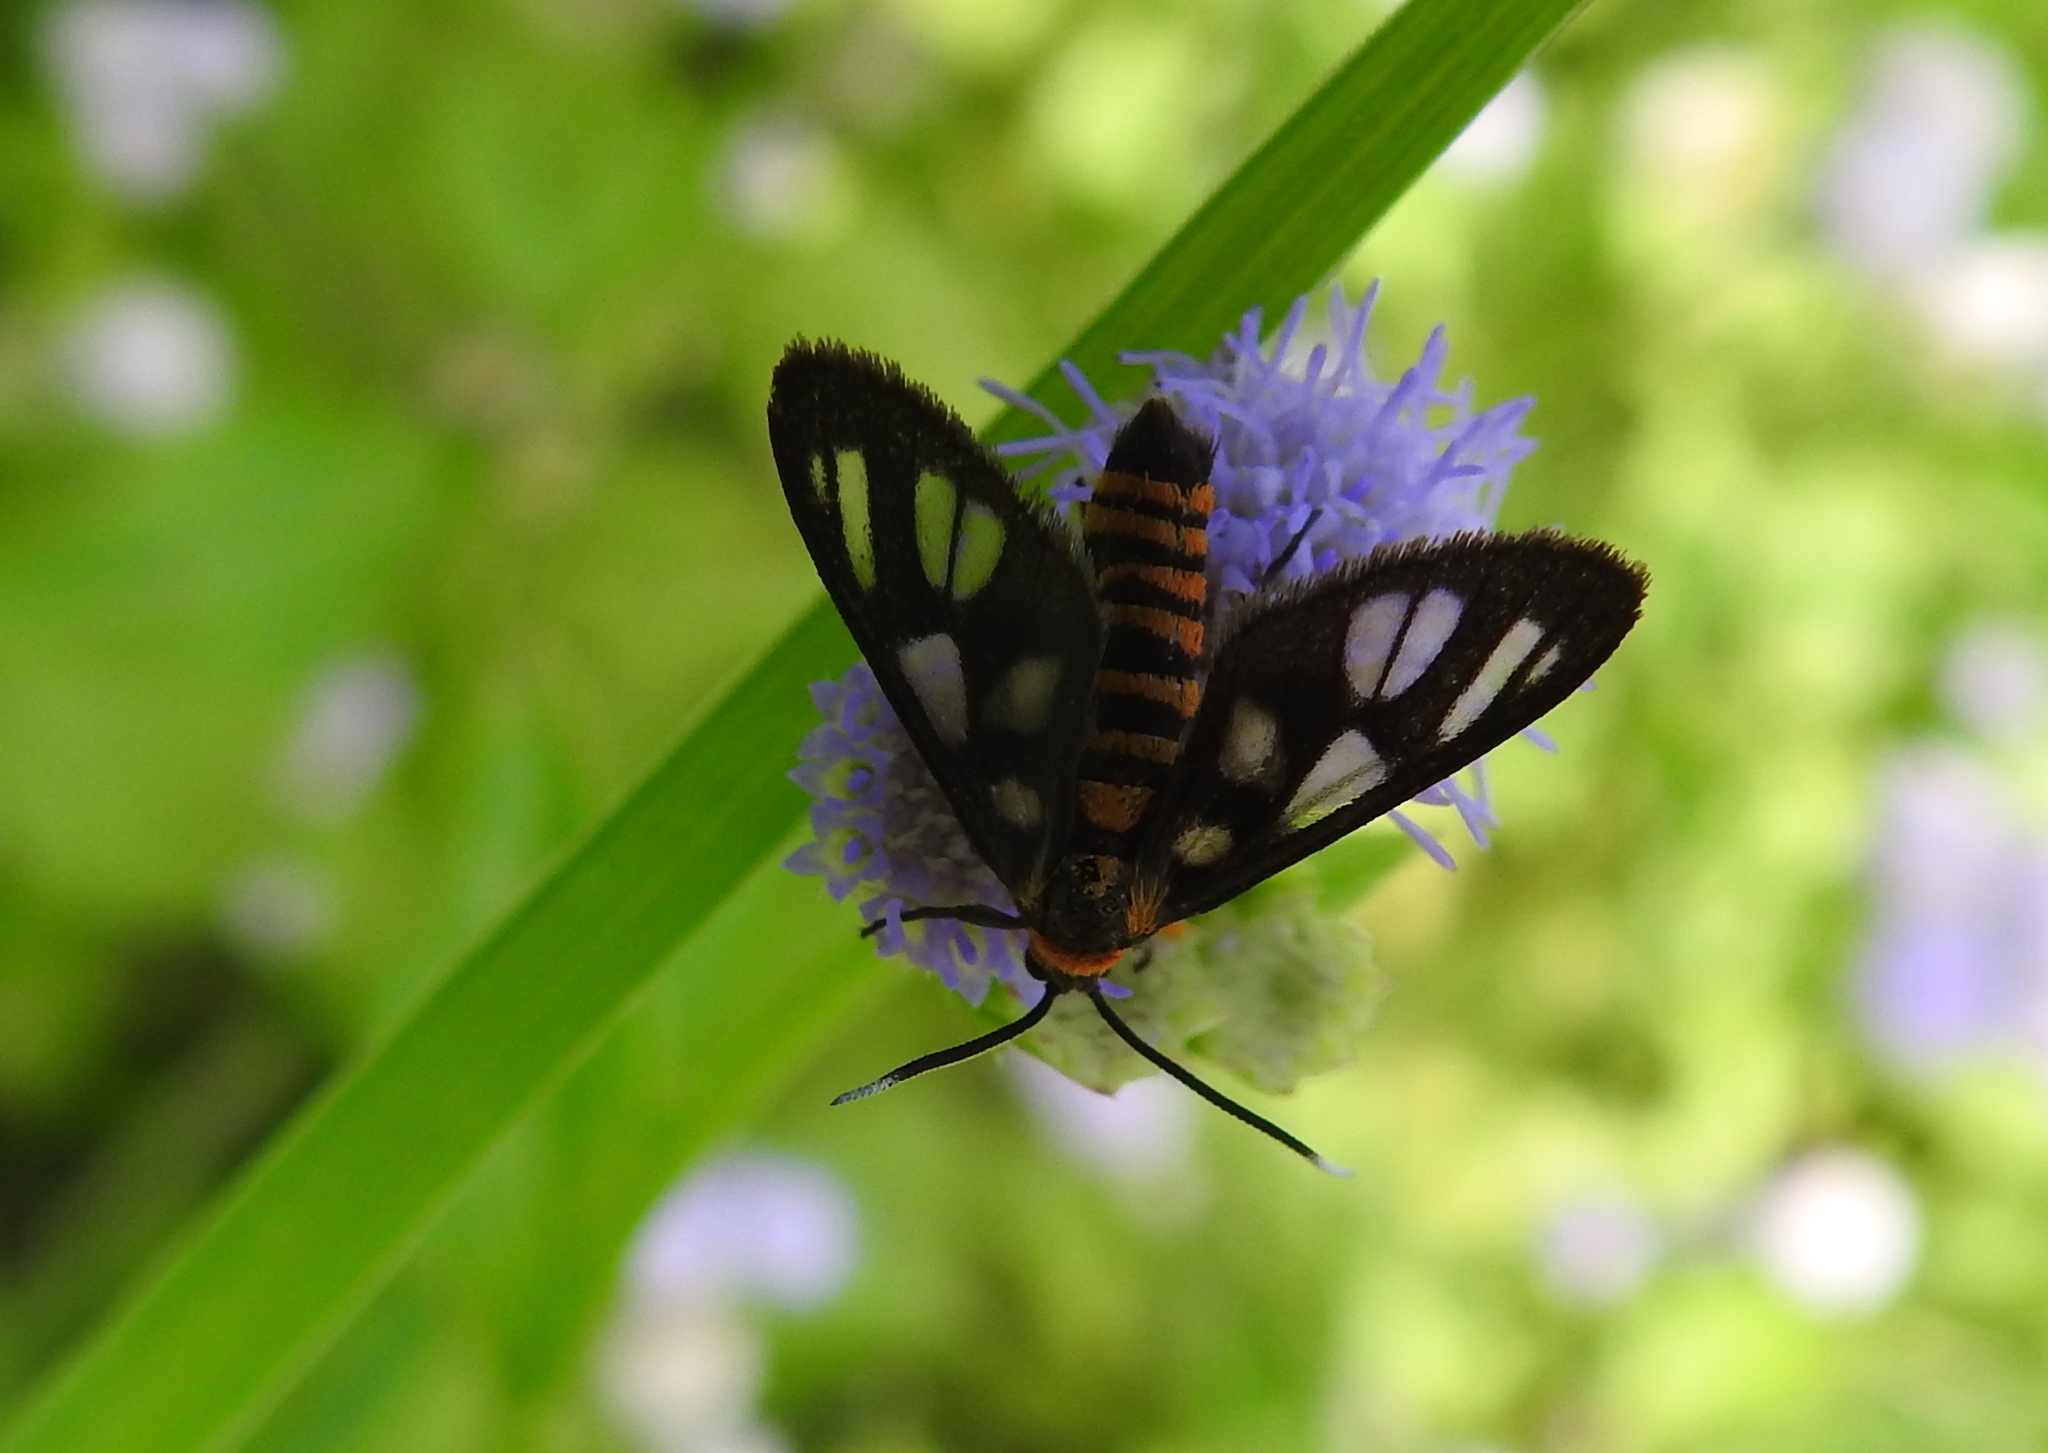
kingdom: Animalia
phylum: Arthropoda
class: Insecta
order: Lepidoptera
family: Erebidae
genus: Amata
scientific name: Amata huebneri
